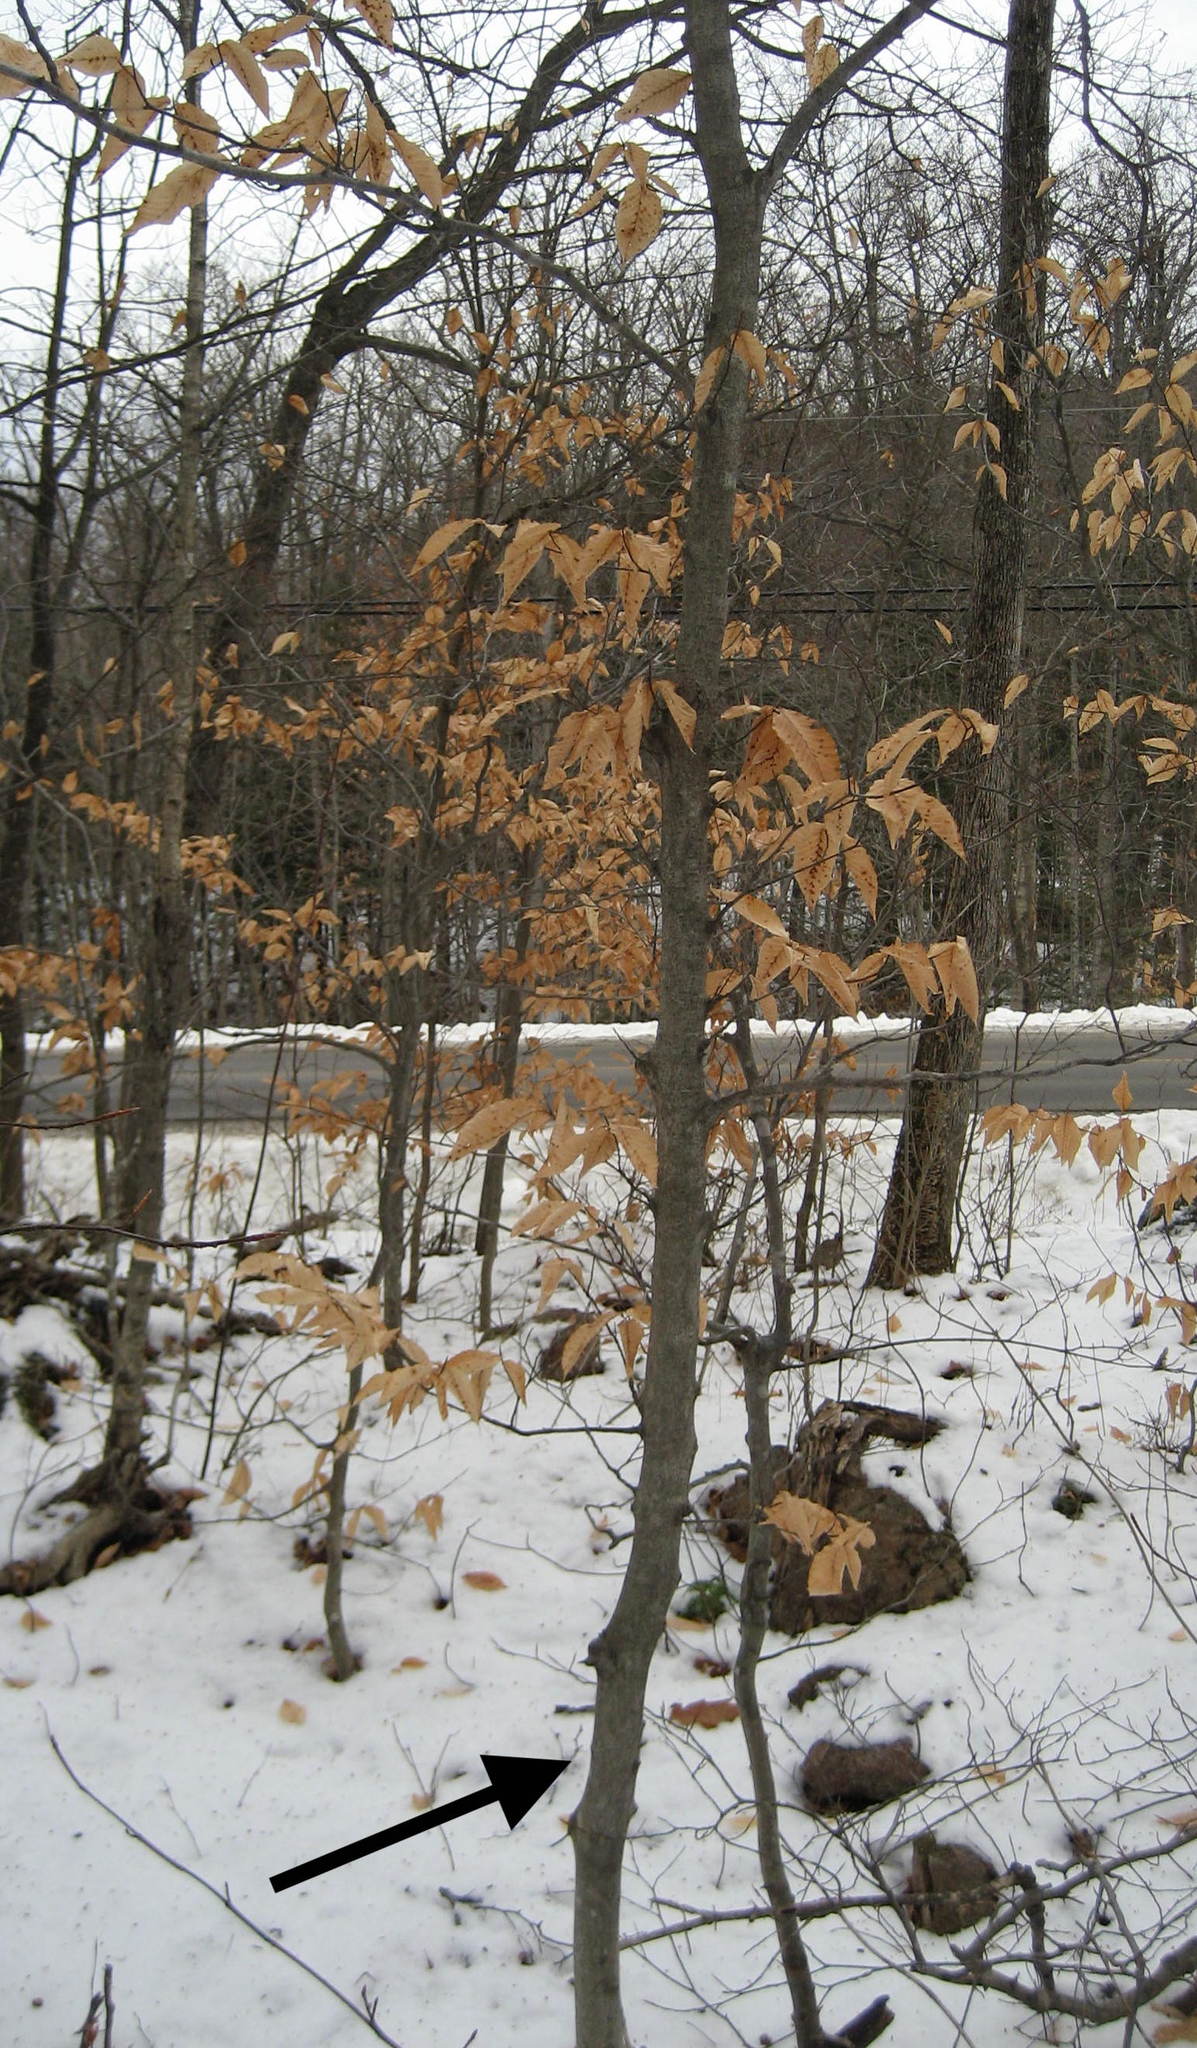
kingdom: Plantae
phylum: Tracheophyta
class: Magnoliopsida
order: Fagales
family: Fagaceae
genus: Fagus
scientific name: Fagus grandifolia
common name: American beech
